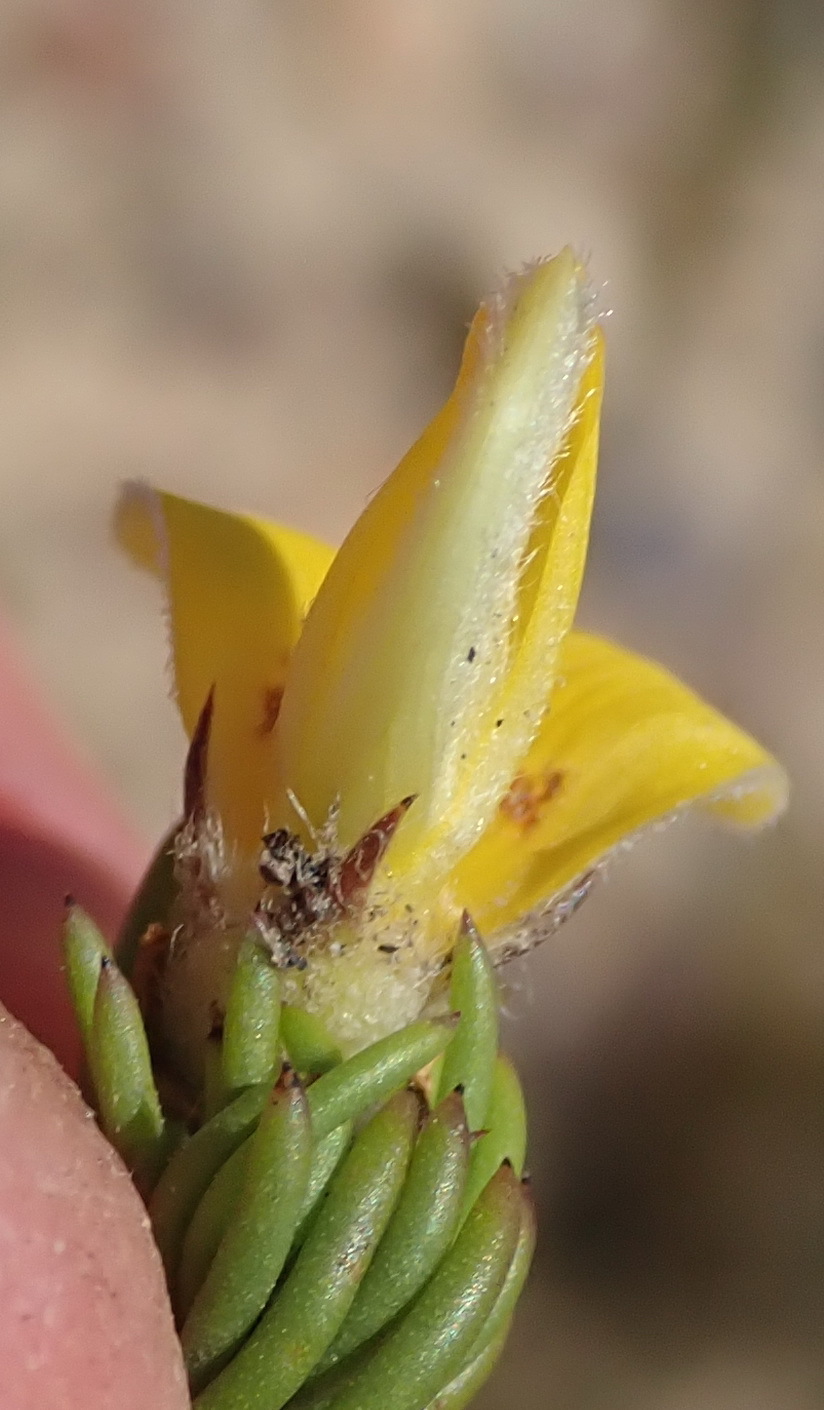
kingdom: Plantae
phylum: Tracheophyta
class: Magnoliopsida
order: Fabales
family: Fabaceae
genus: Aspalathus
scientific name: Aspalathus congesta
